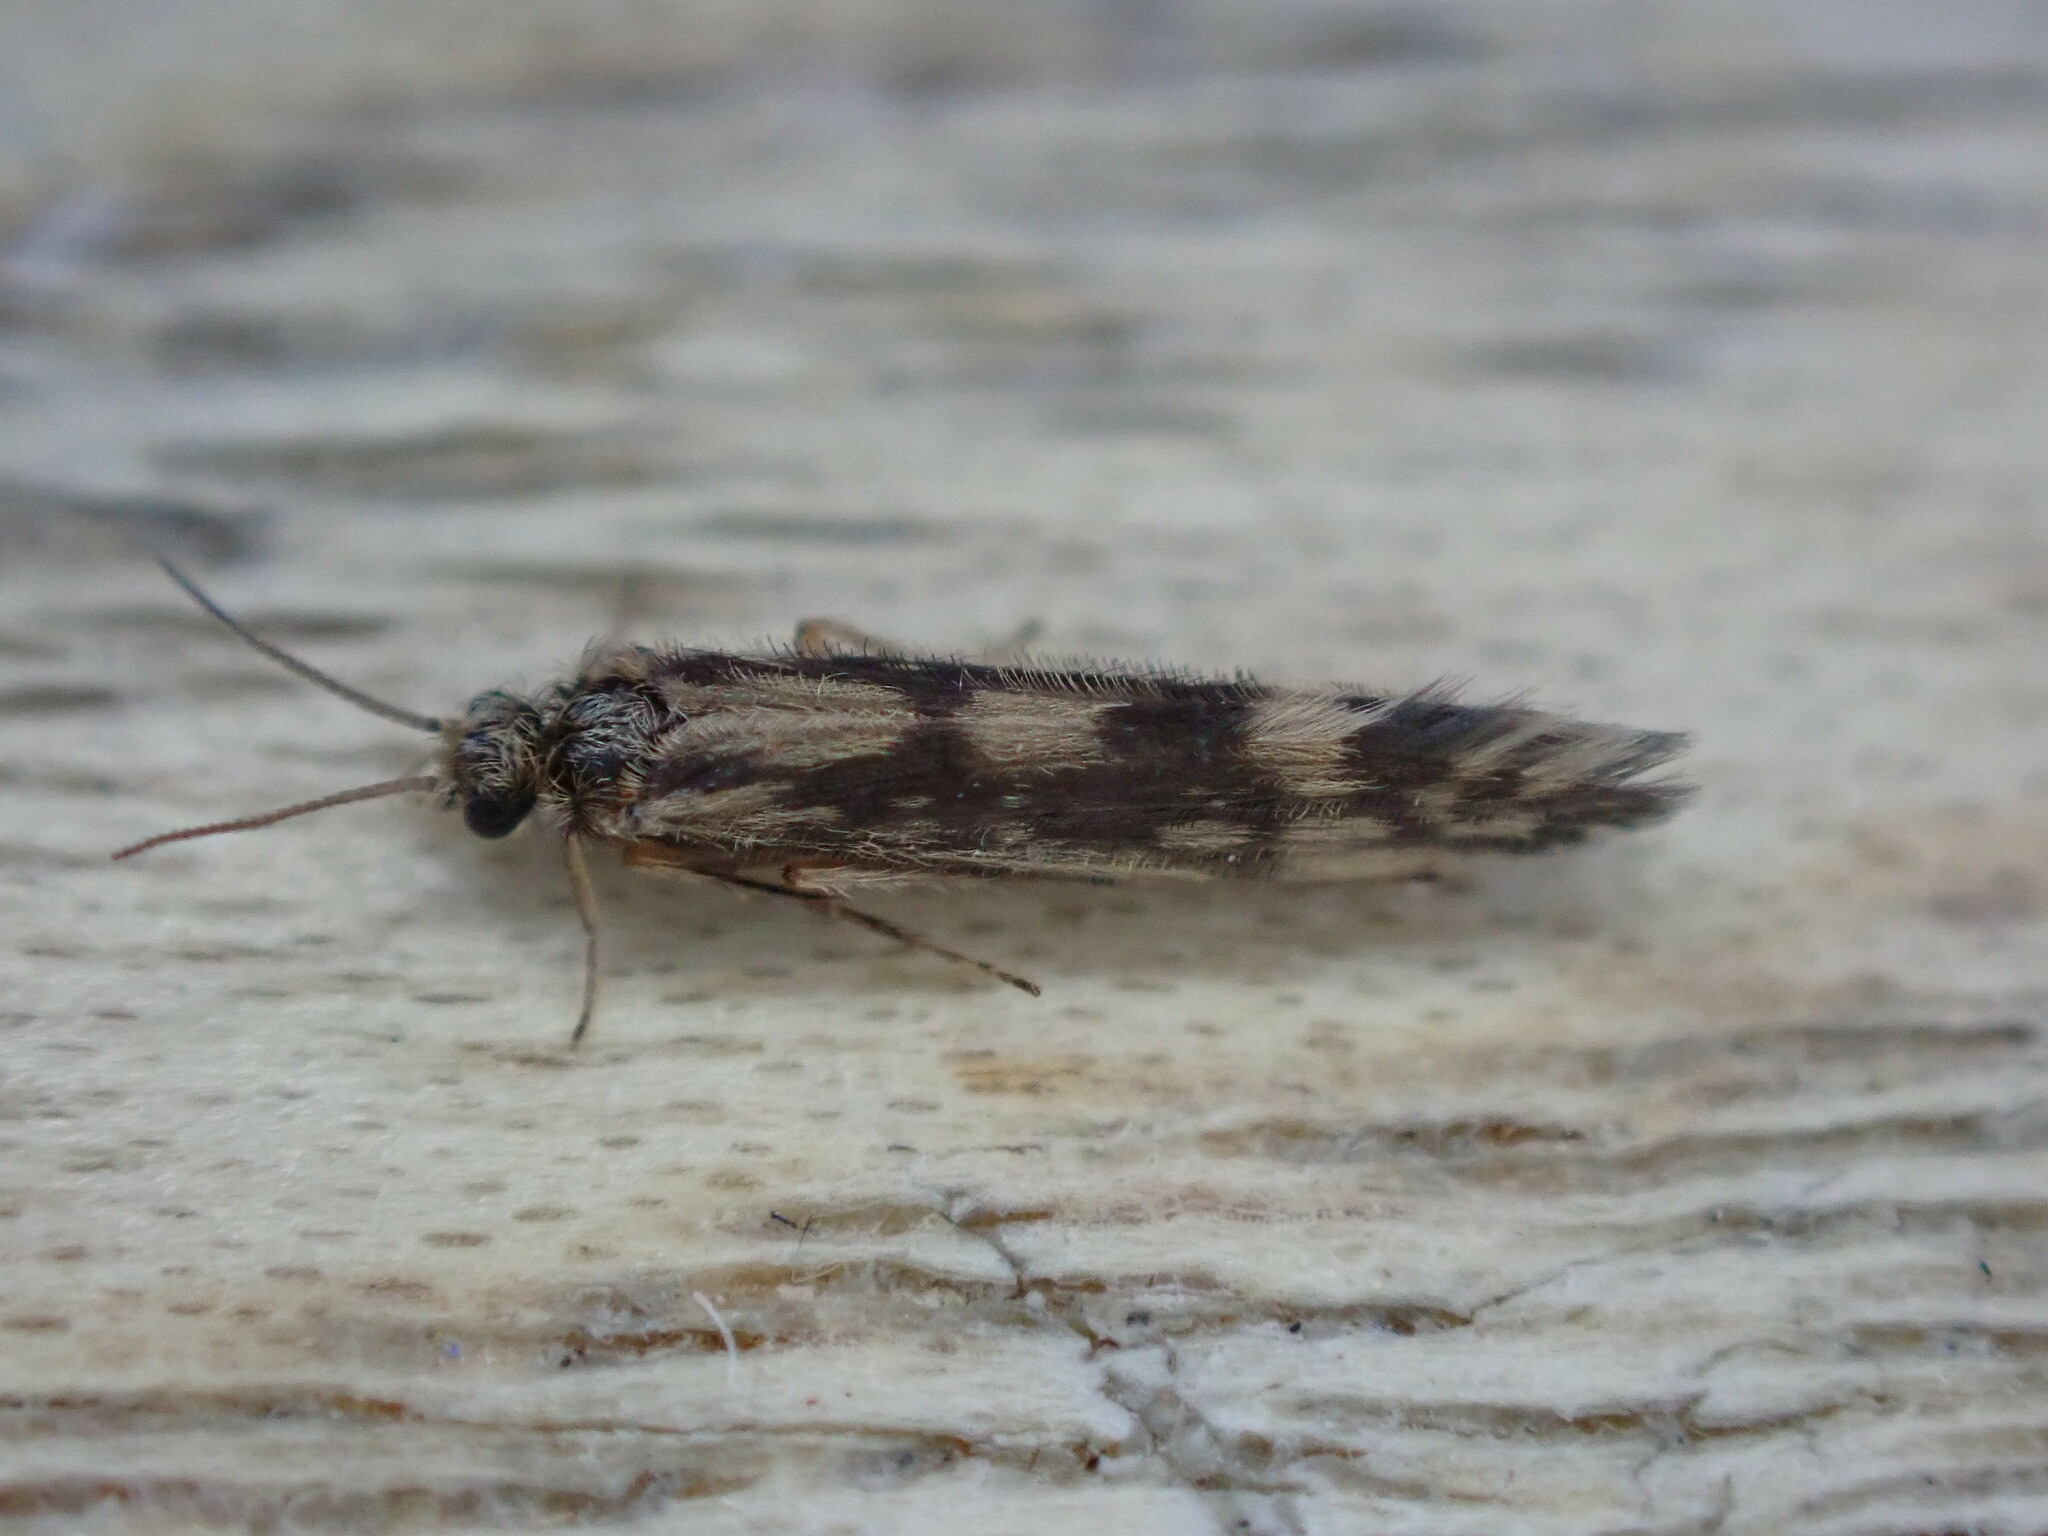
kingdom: Animalia
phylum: Arthropoda
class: Insecta
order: Trichoptera
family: Hydroptilidae
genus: Agraylea
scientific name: Agraylea multipunctata
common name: Salt and pepper microcaddisfly
